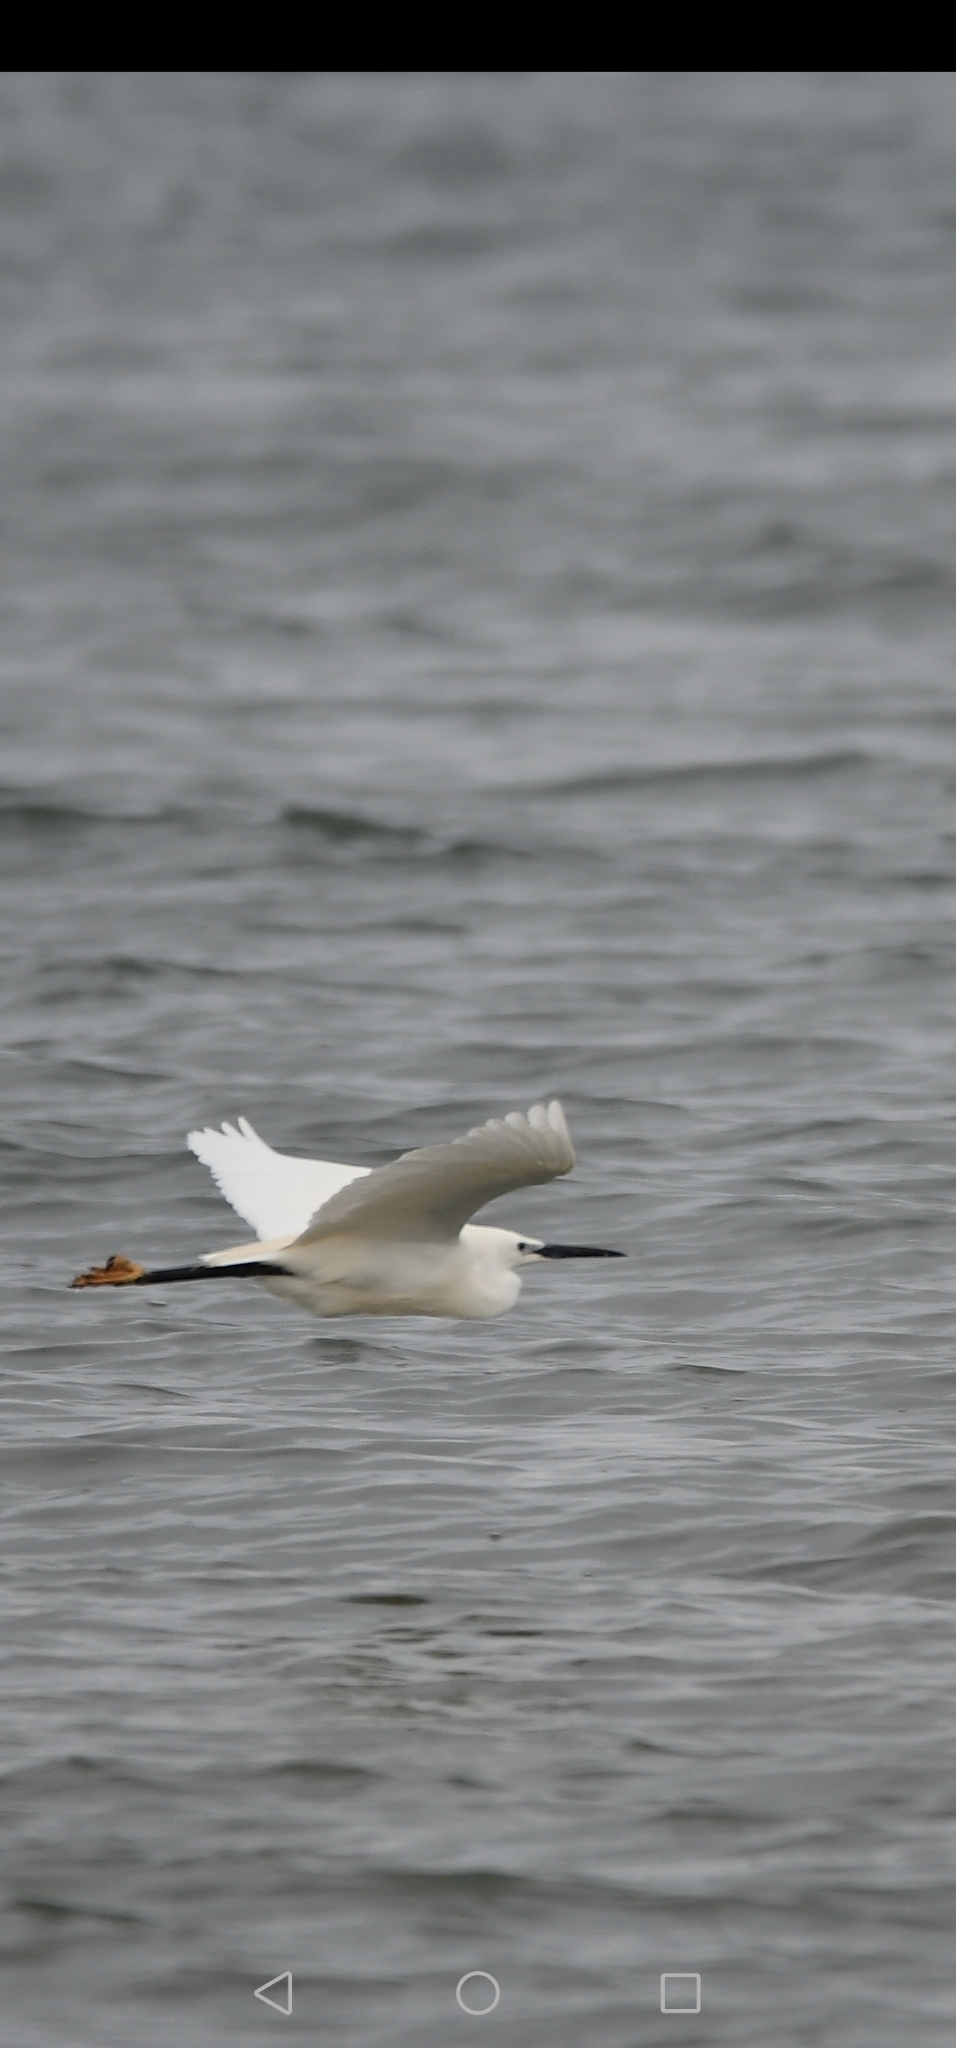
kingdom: Animalia
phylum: Chordata
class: Aves
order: Pelecaniformes
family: Ardeidae
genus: Egretta
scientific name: Egretta garzetta
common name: Little egret
